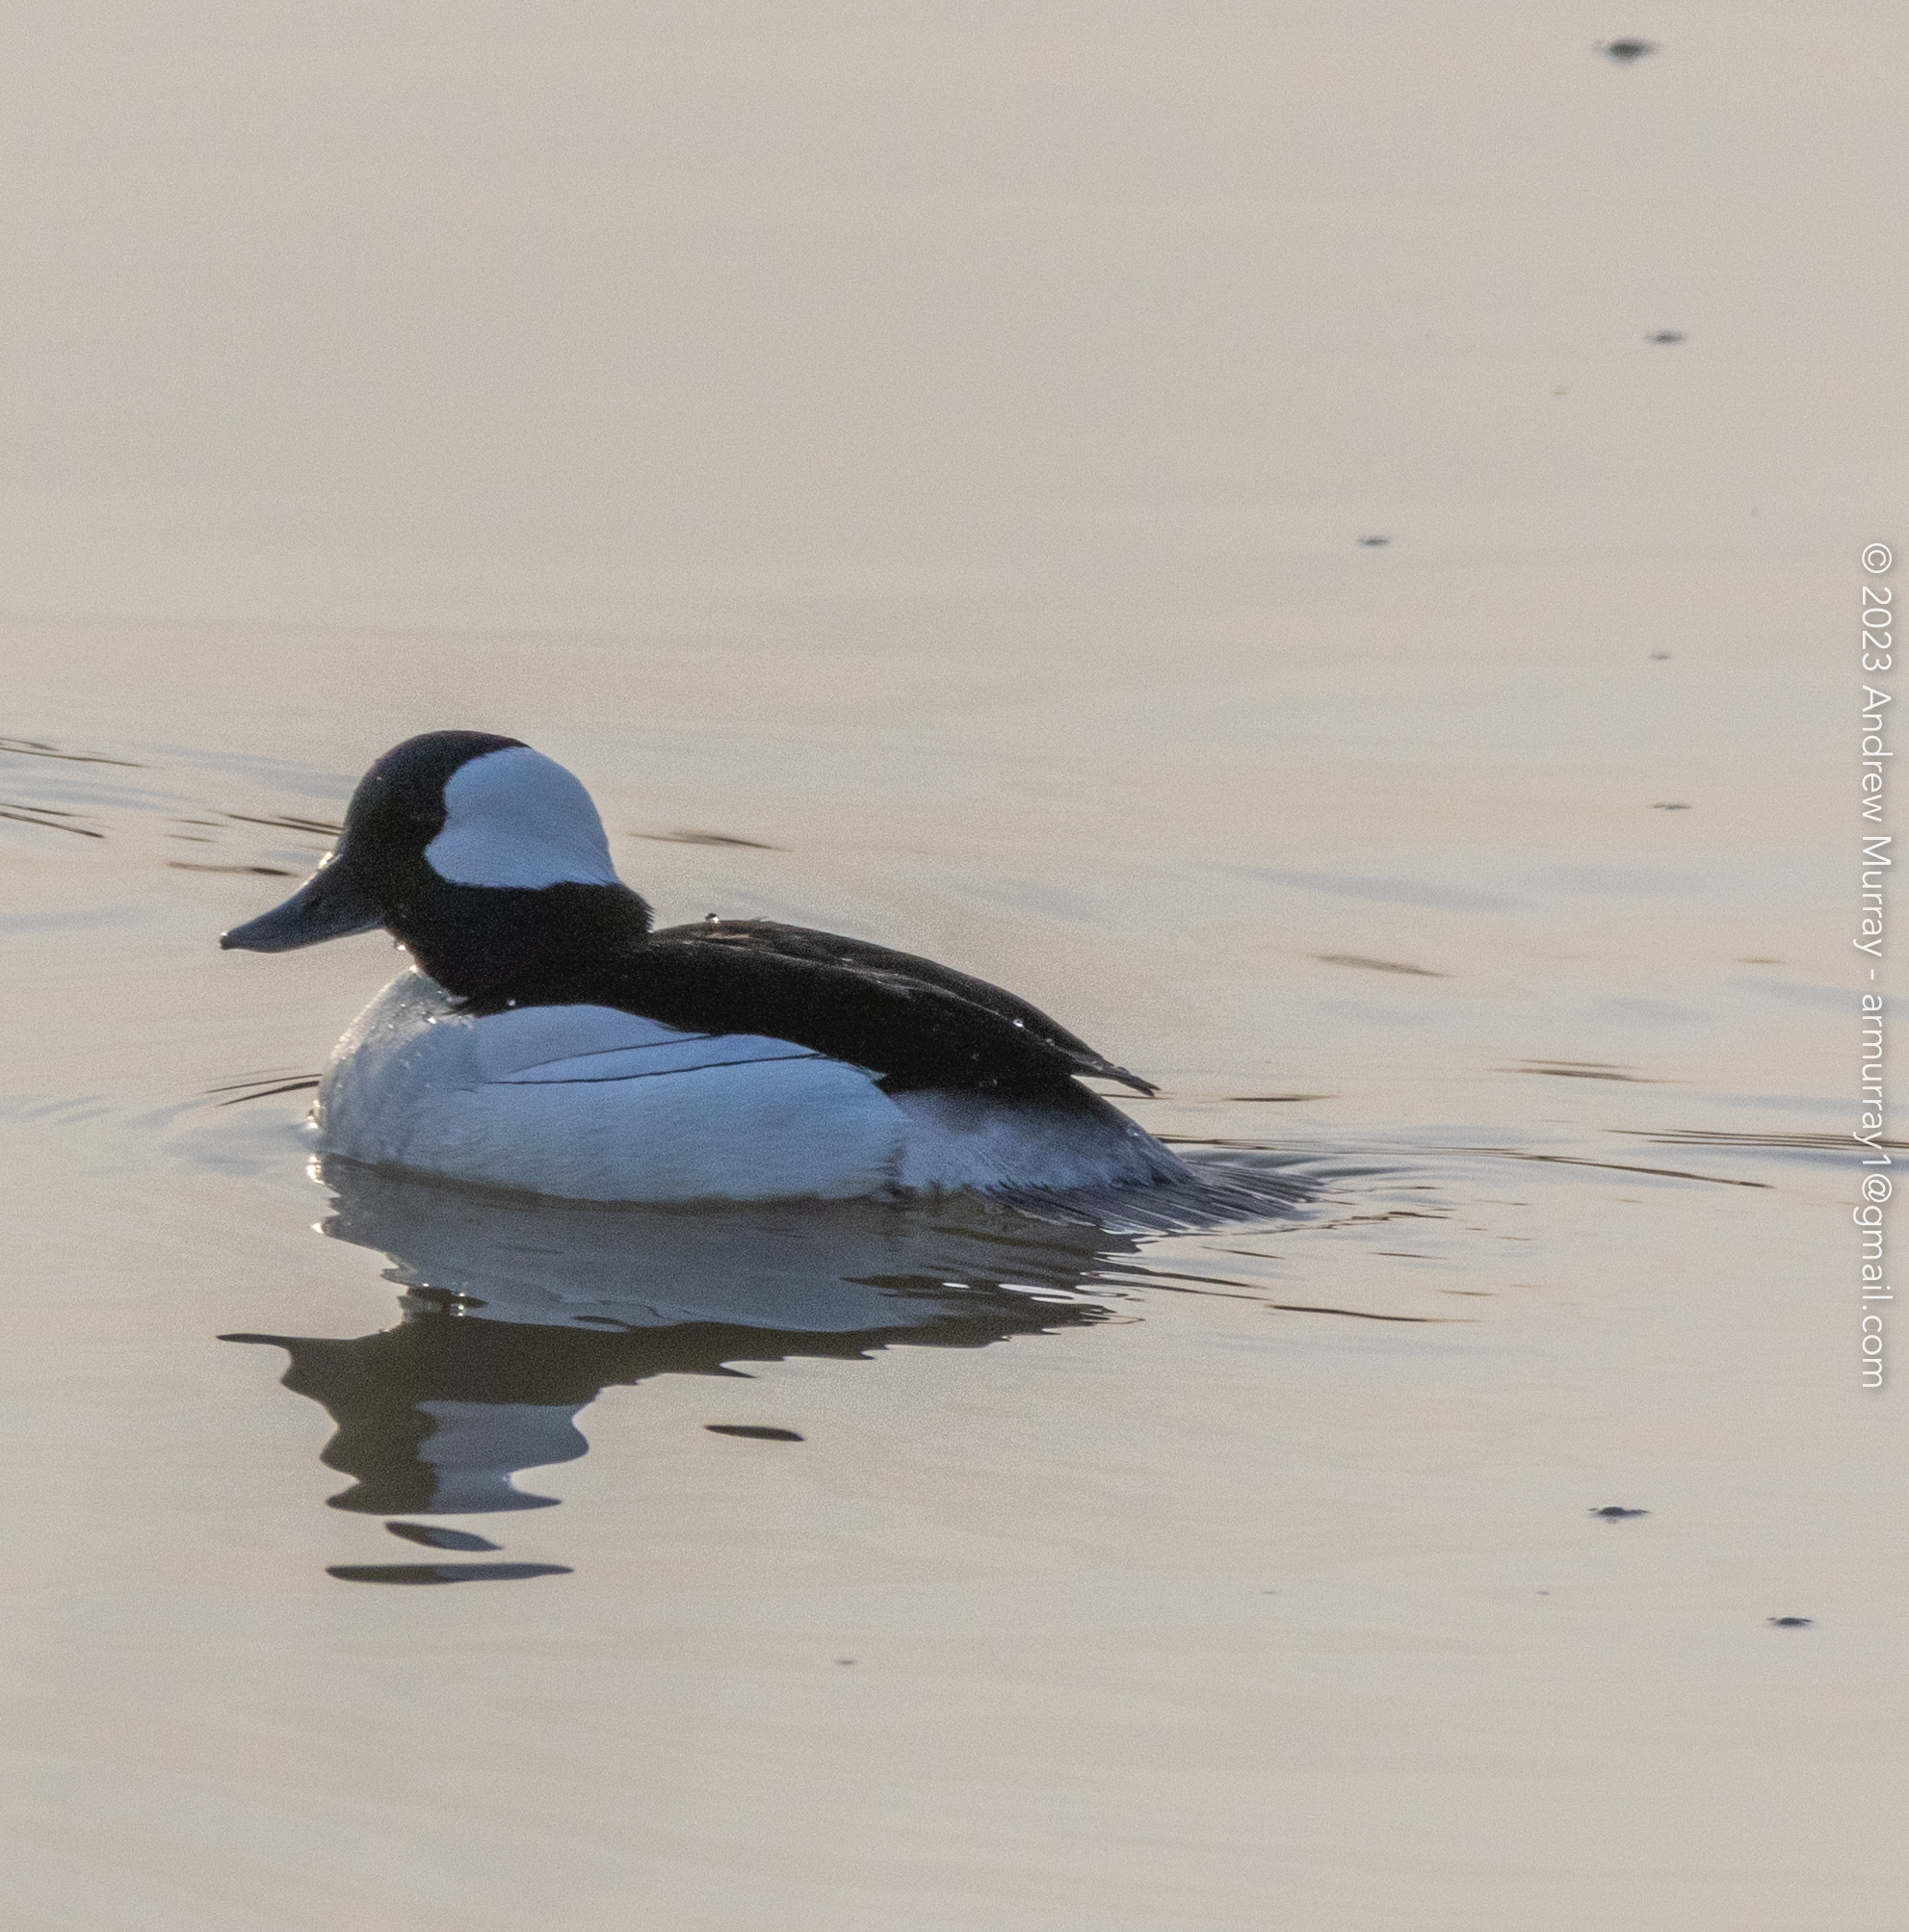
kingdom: Animalia
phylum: Chordata
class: Aves
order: Anseriformes
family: Anatidae
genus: Bucephala
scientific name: Bucephala albeola
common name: Bufflehead
